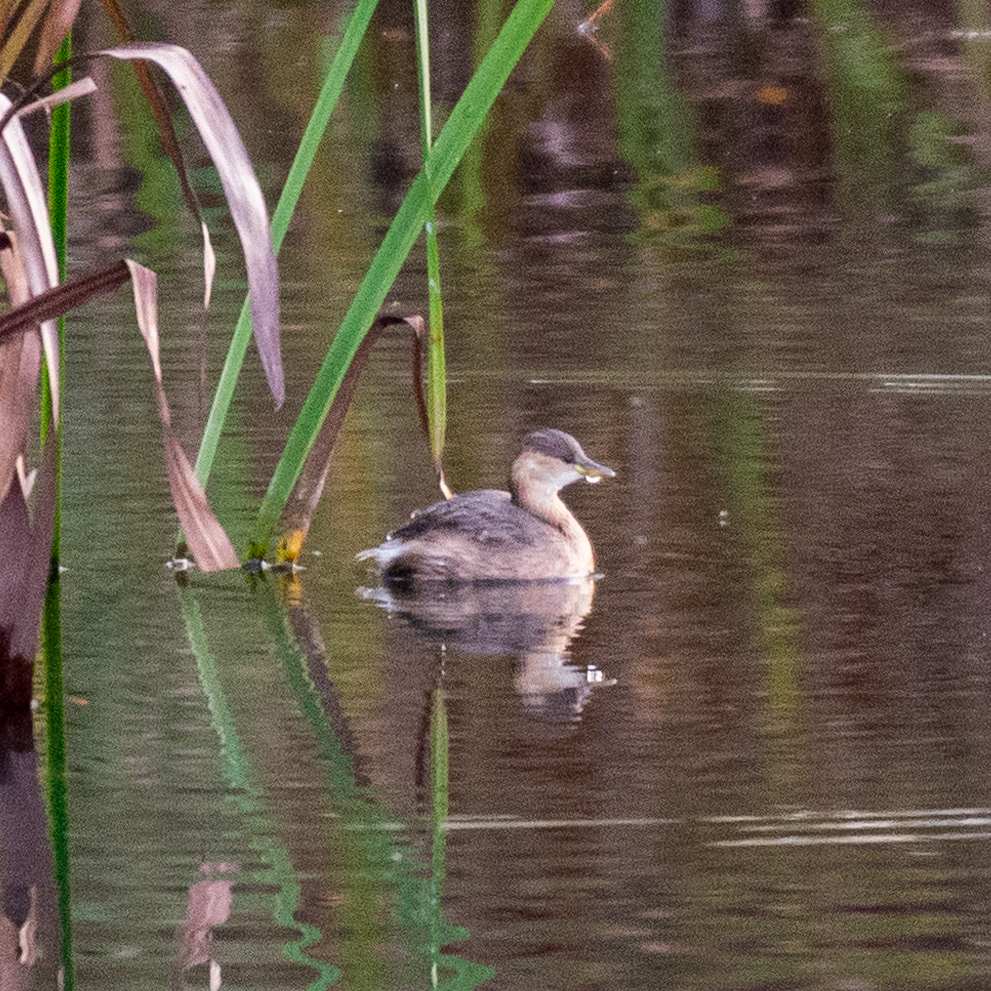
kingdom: Animalia
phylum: Chordata
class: Aves
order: Podicipediformes
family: Podicipedidae
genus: Tachybaptus
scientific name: Tachybaptus ruficollis
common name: Little grebe
